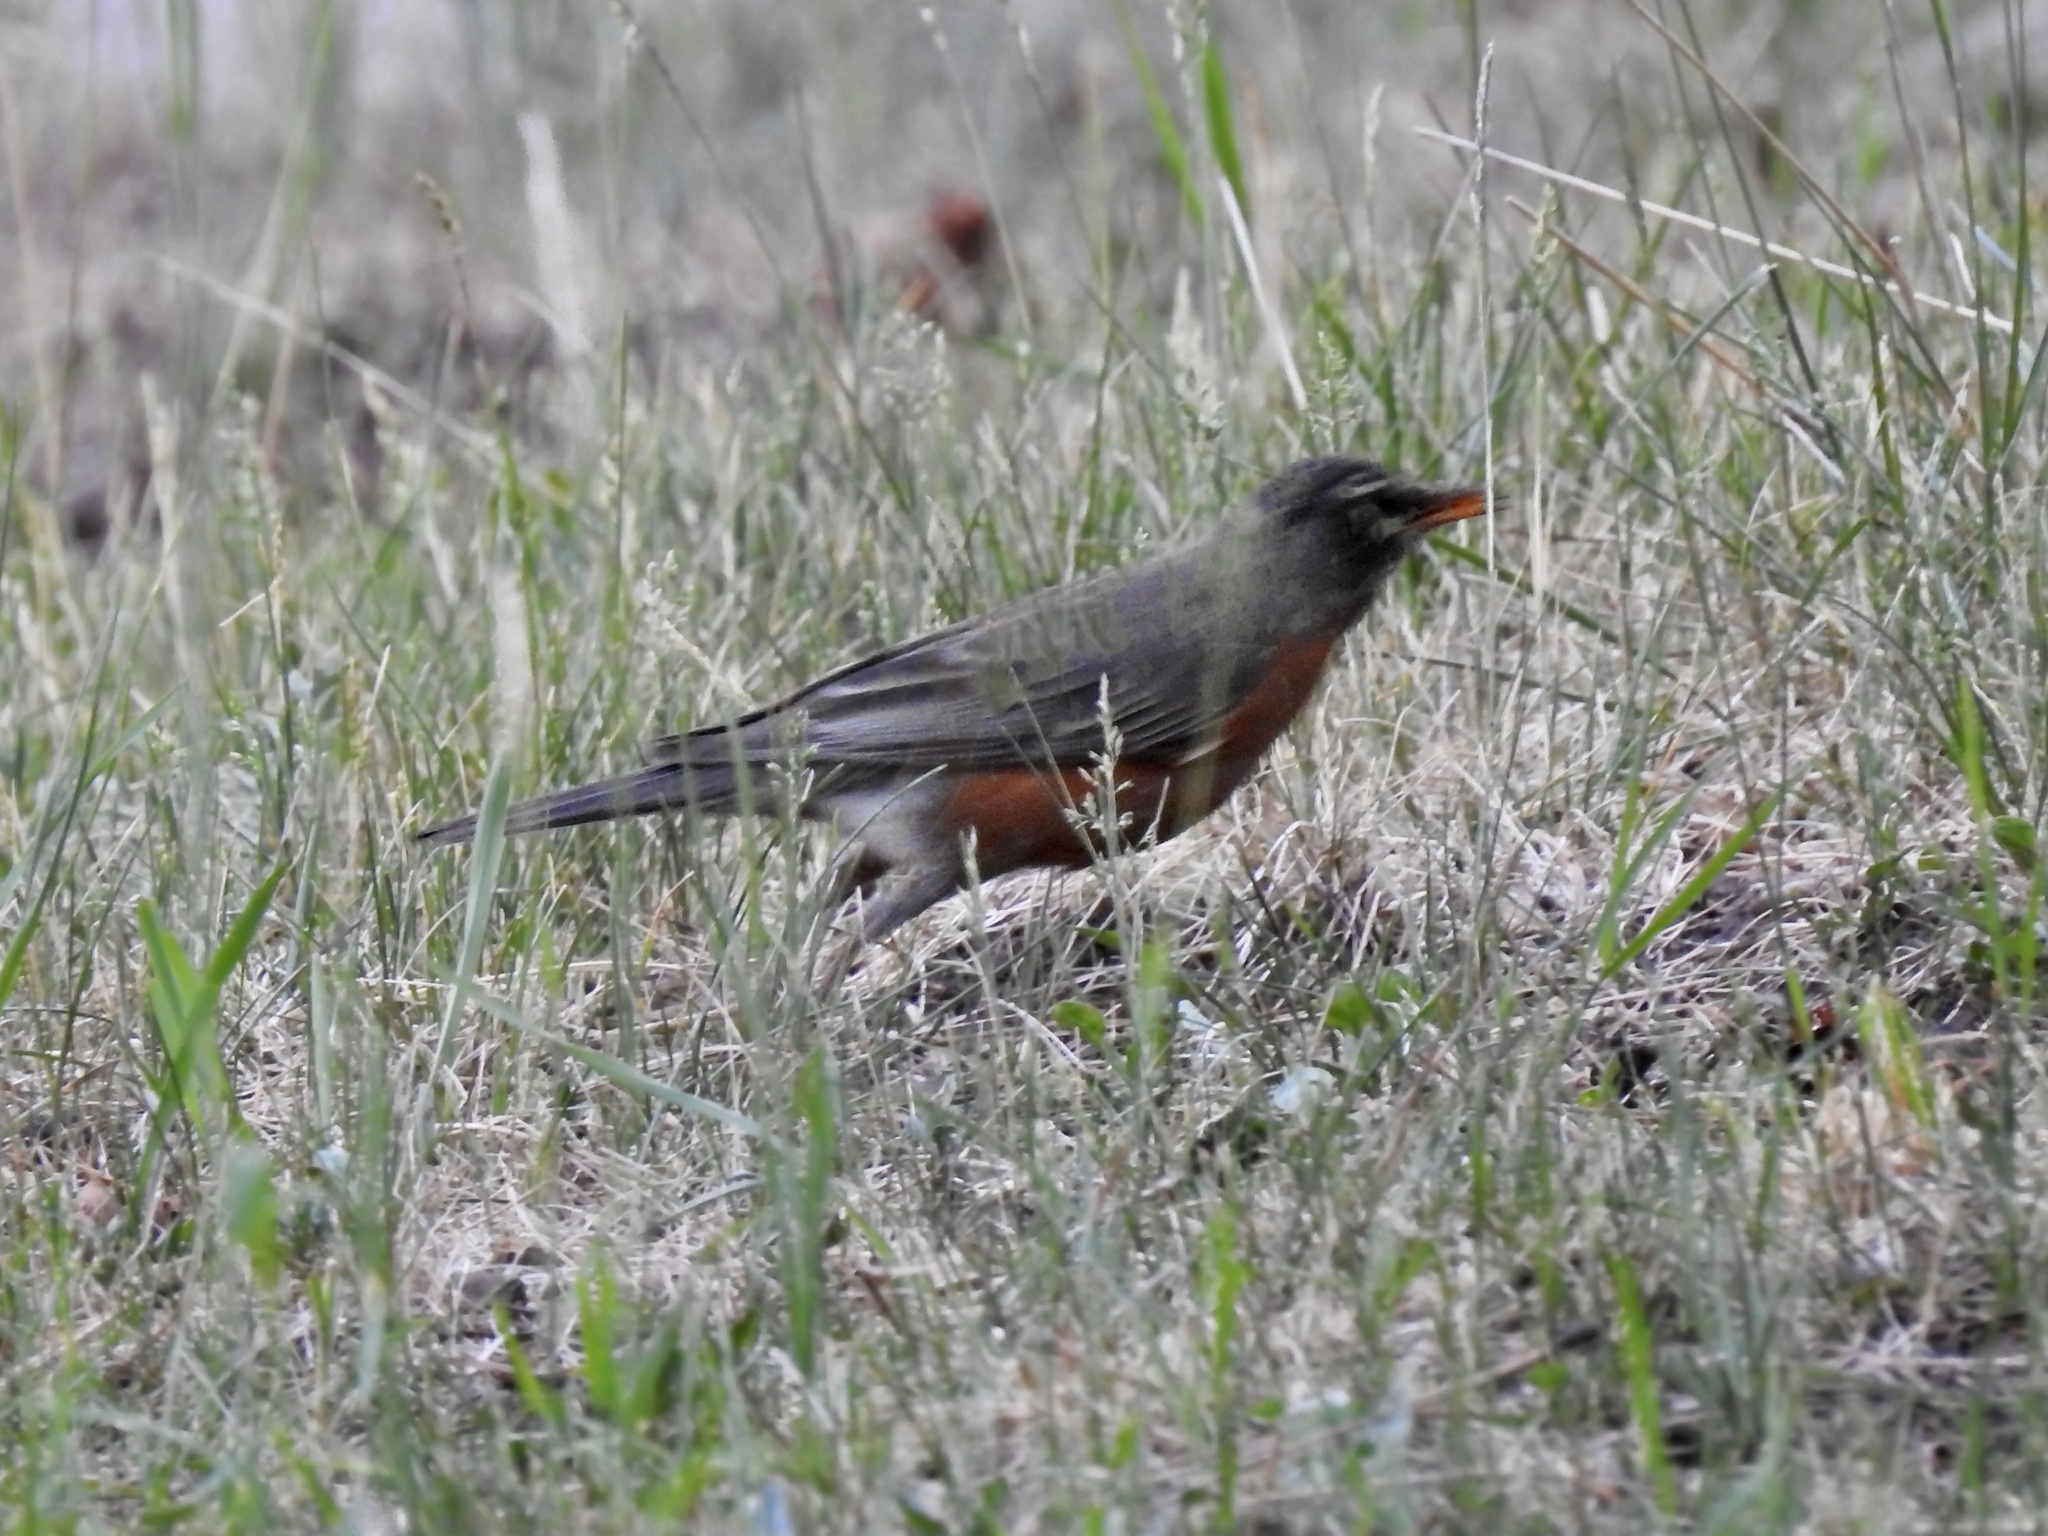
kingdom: Animalia
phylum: Chordata
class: Aves
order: Passeriformes
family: Turdidae
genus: Turdus
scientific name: Turdus migratorius
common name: American robin
